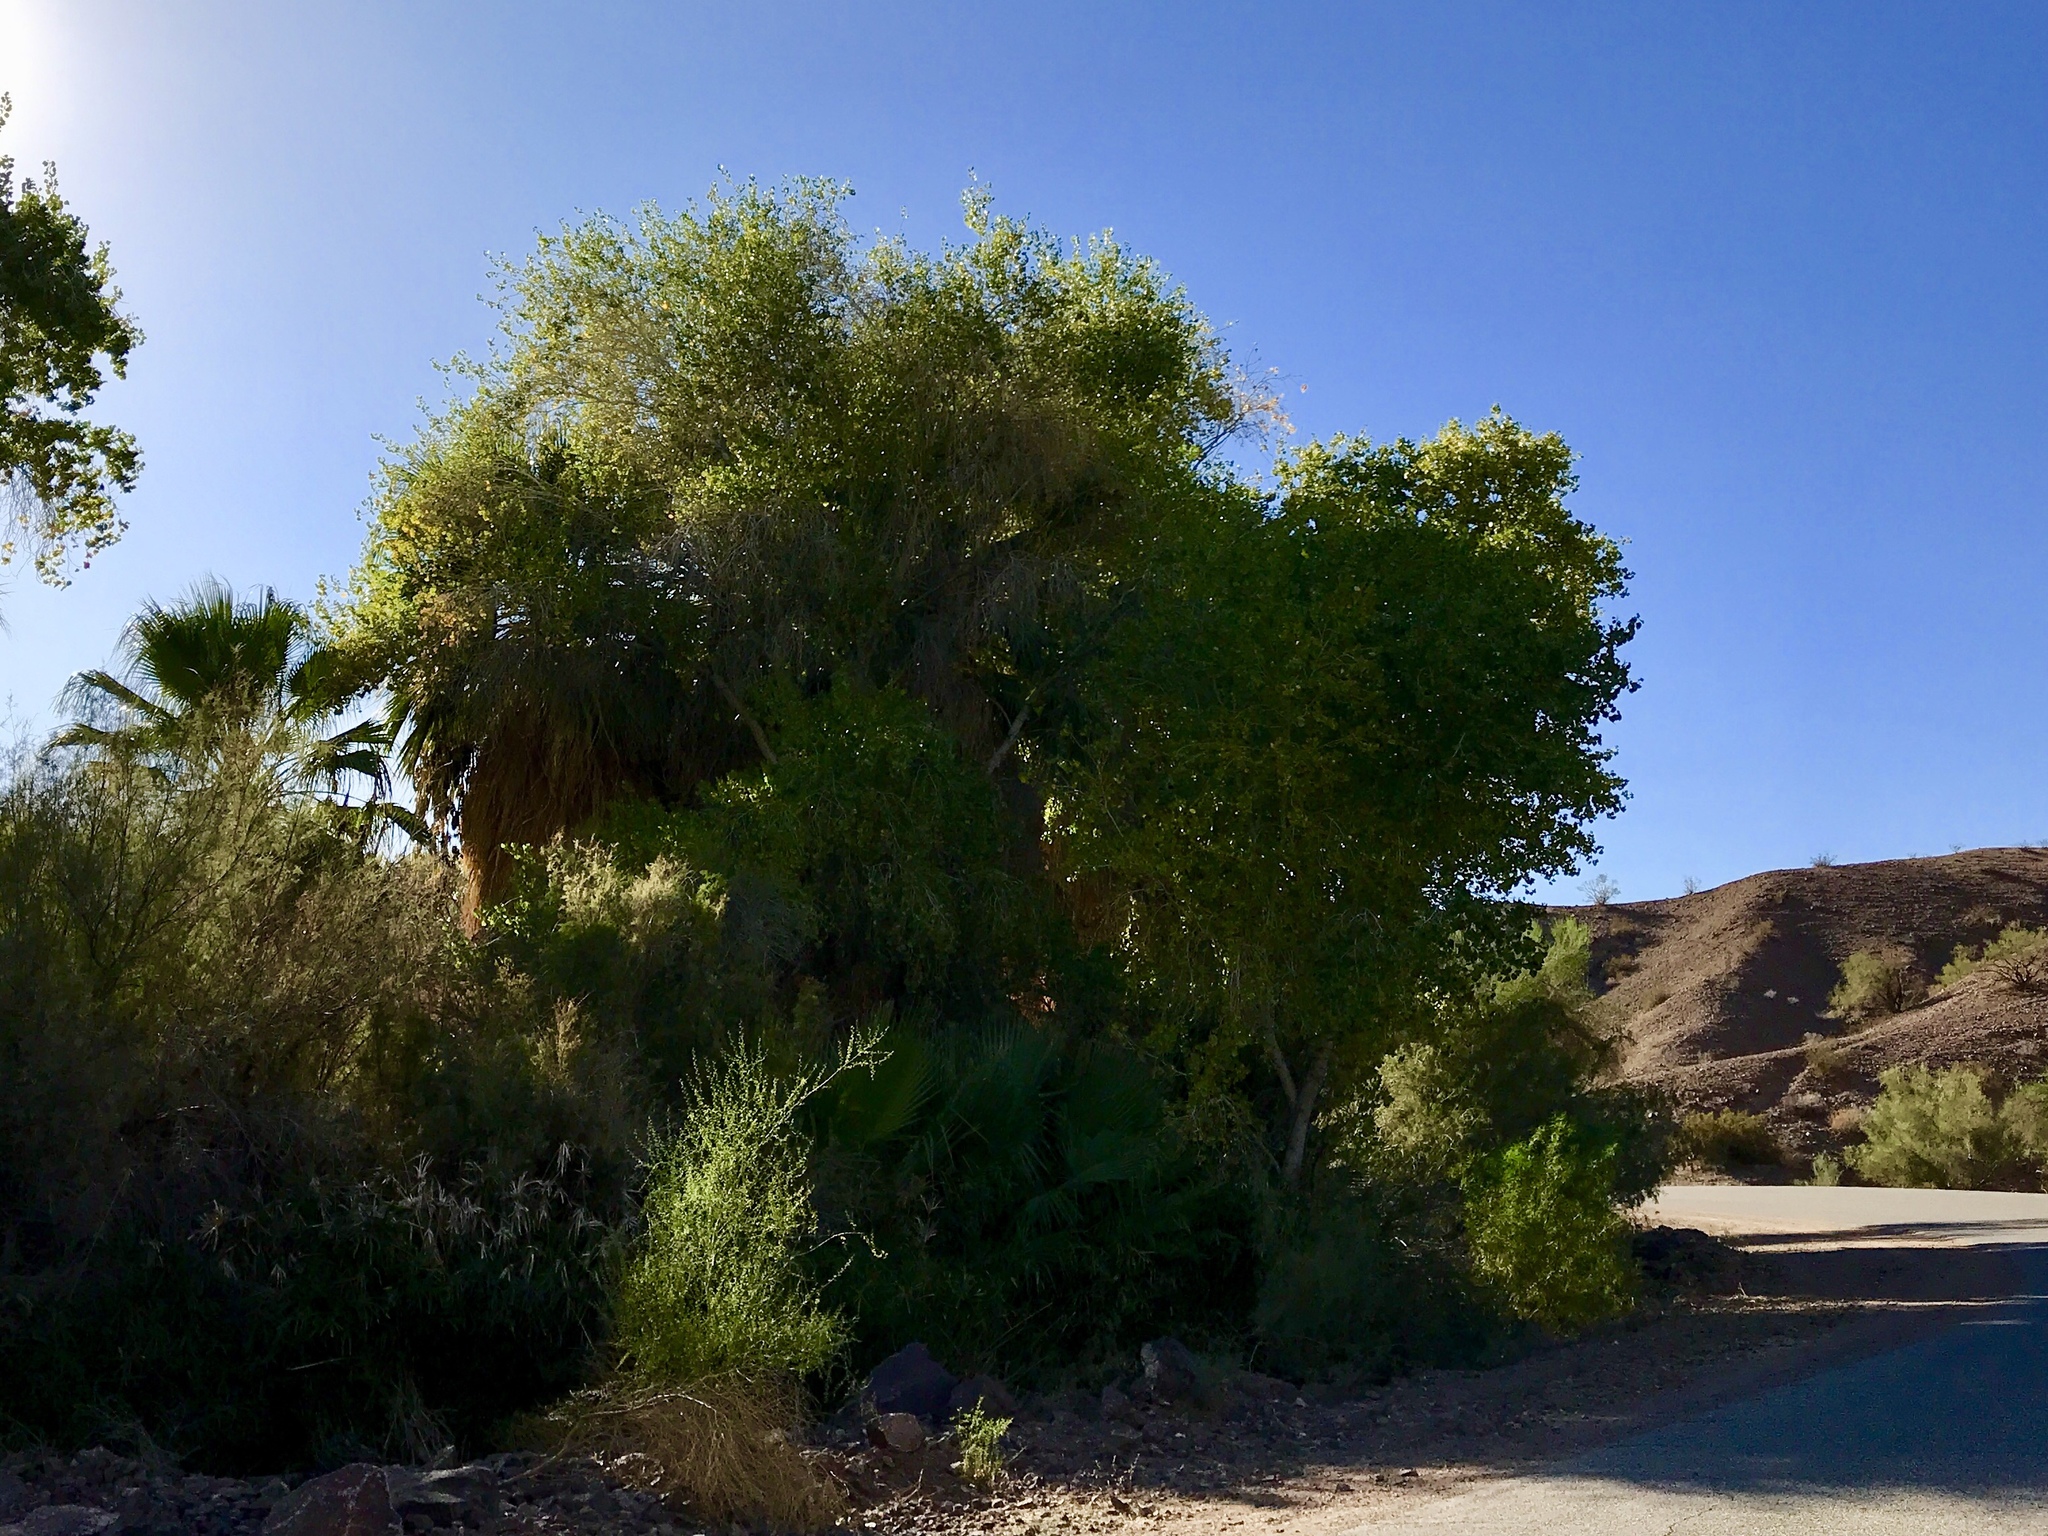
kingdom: Plantae
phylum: Tracheophyta
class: Magnoliopsida
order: Malpighiales
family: Salicaceae
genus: Populus
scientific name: Populus fremontii
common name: Fremont's cottonwood
